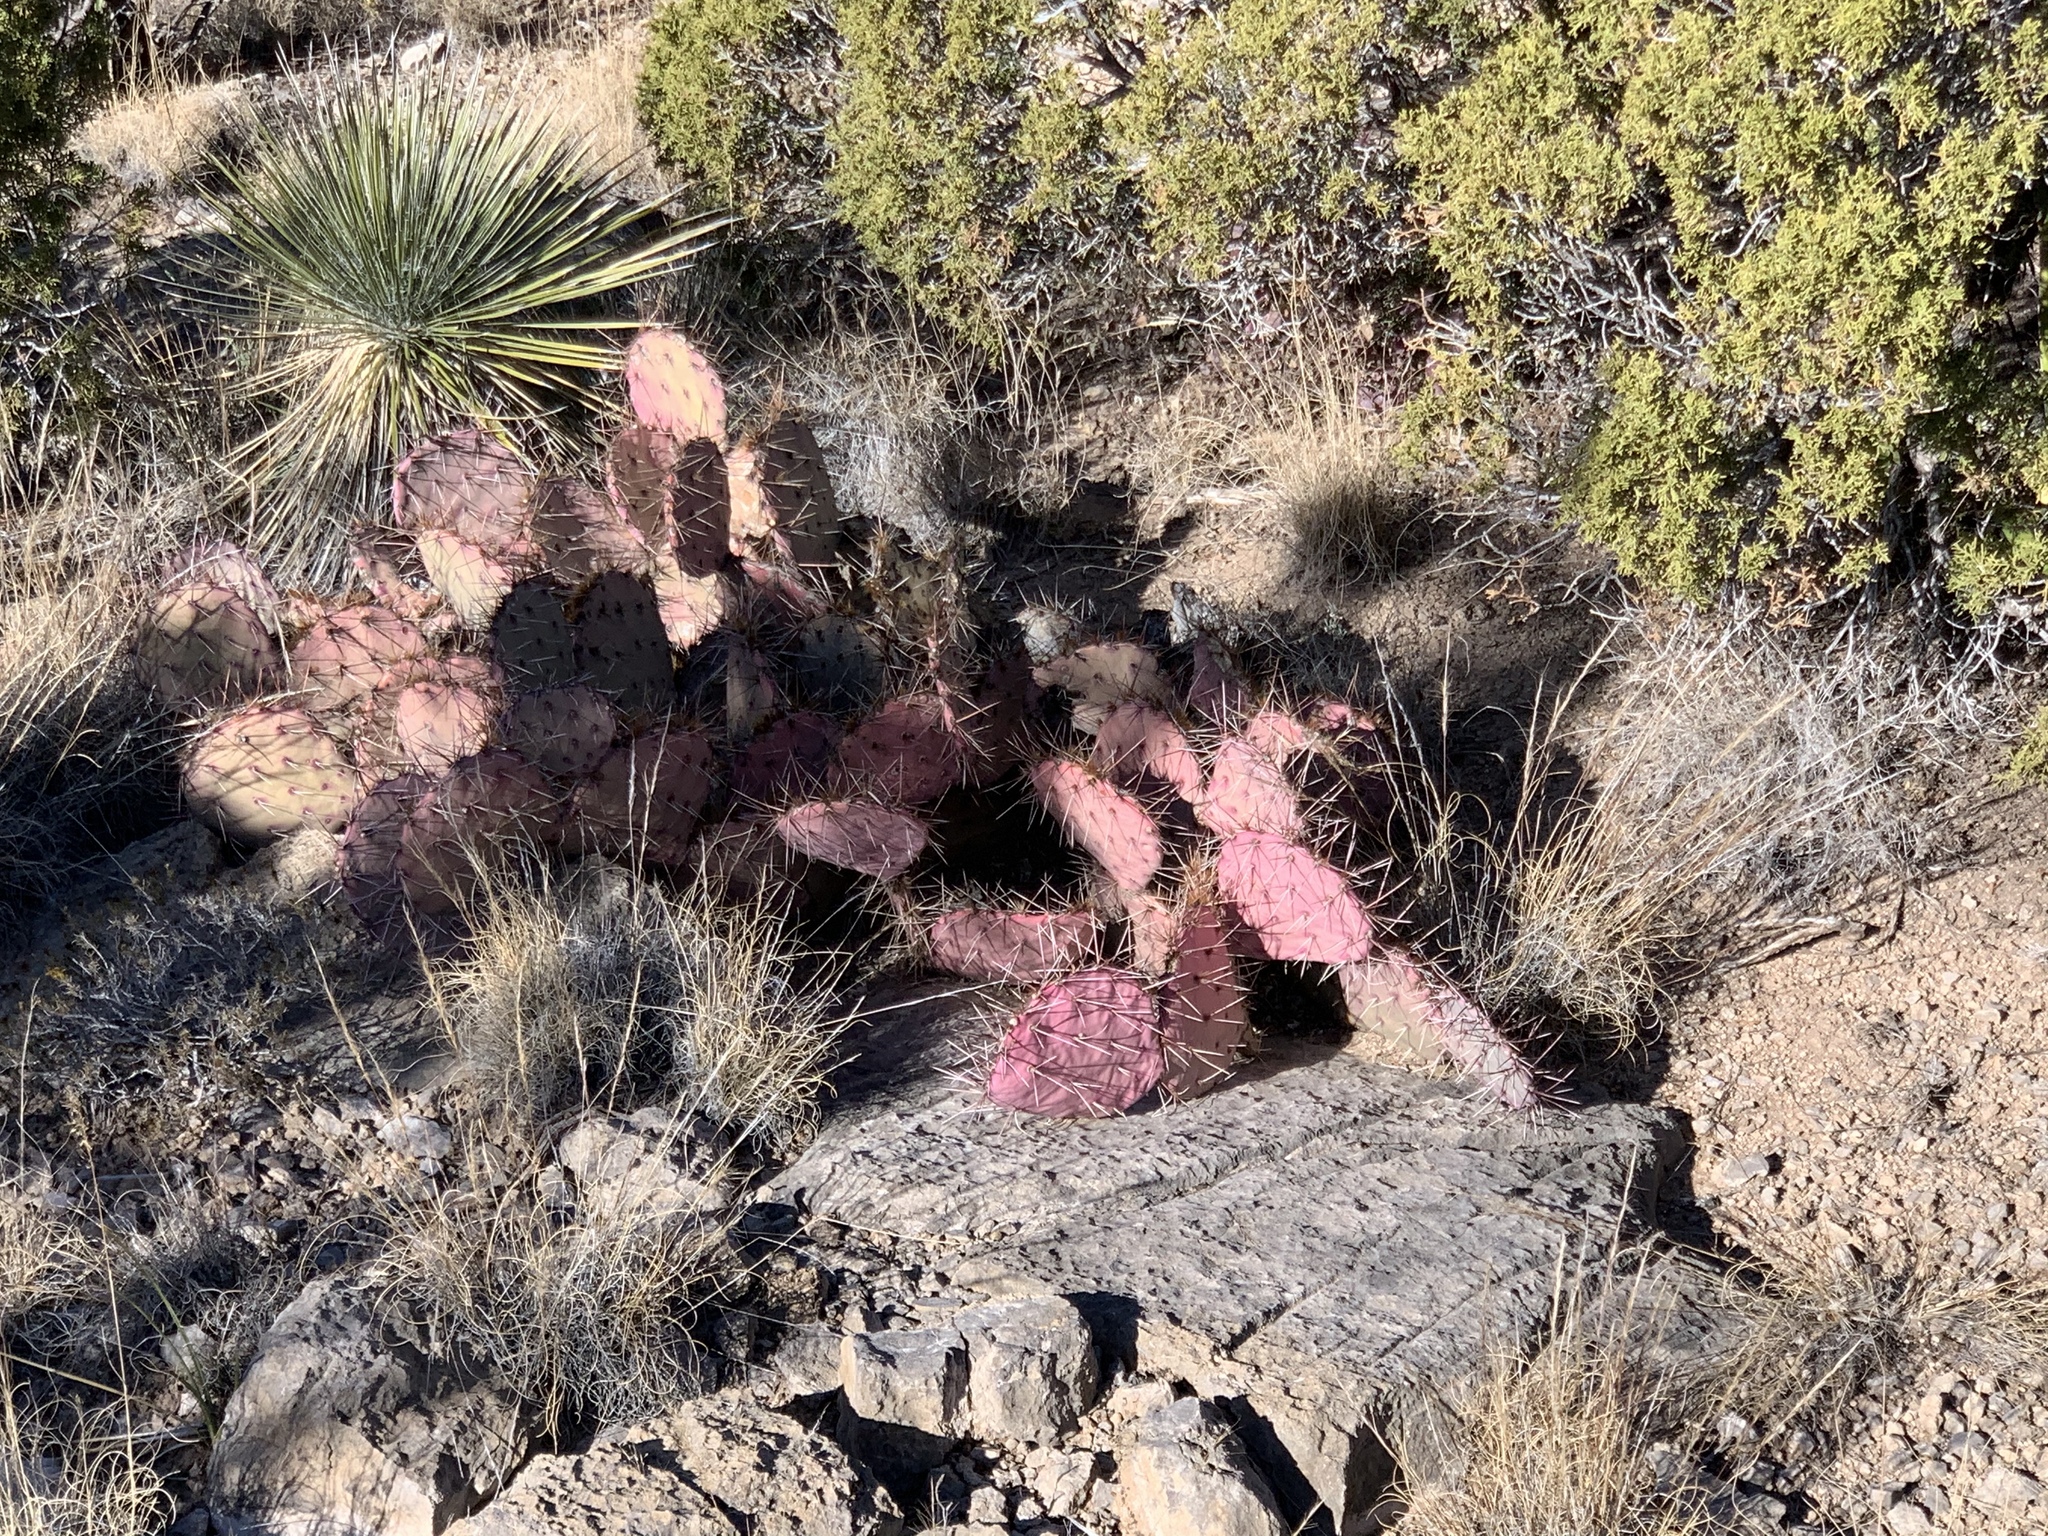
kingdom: Plantae
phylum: Tracheophyta
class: Magnoliopsida
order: Caryophyllales
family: Cactaceae
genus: Opuntia
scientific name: Opuntia macrocentra
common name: Purple prickly-pear
